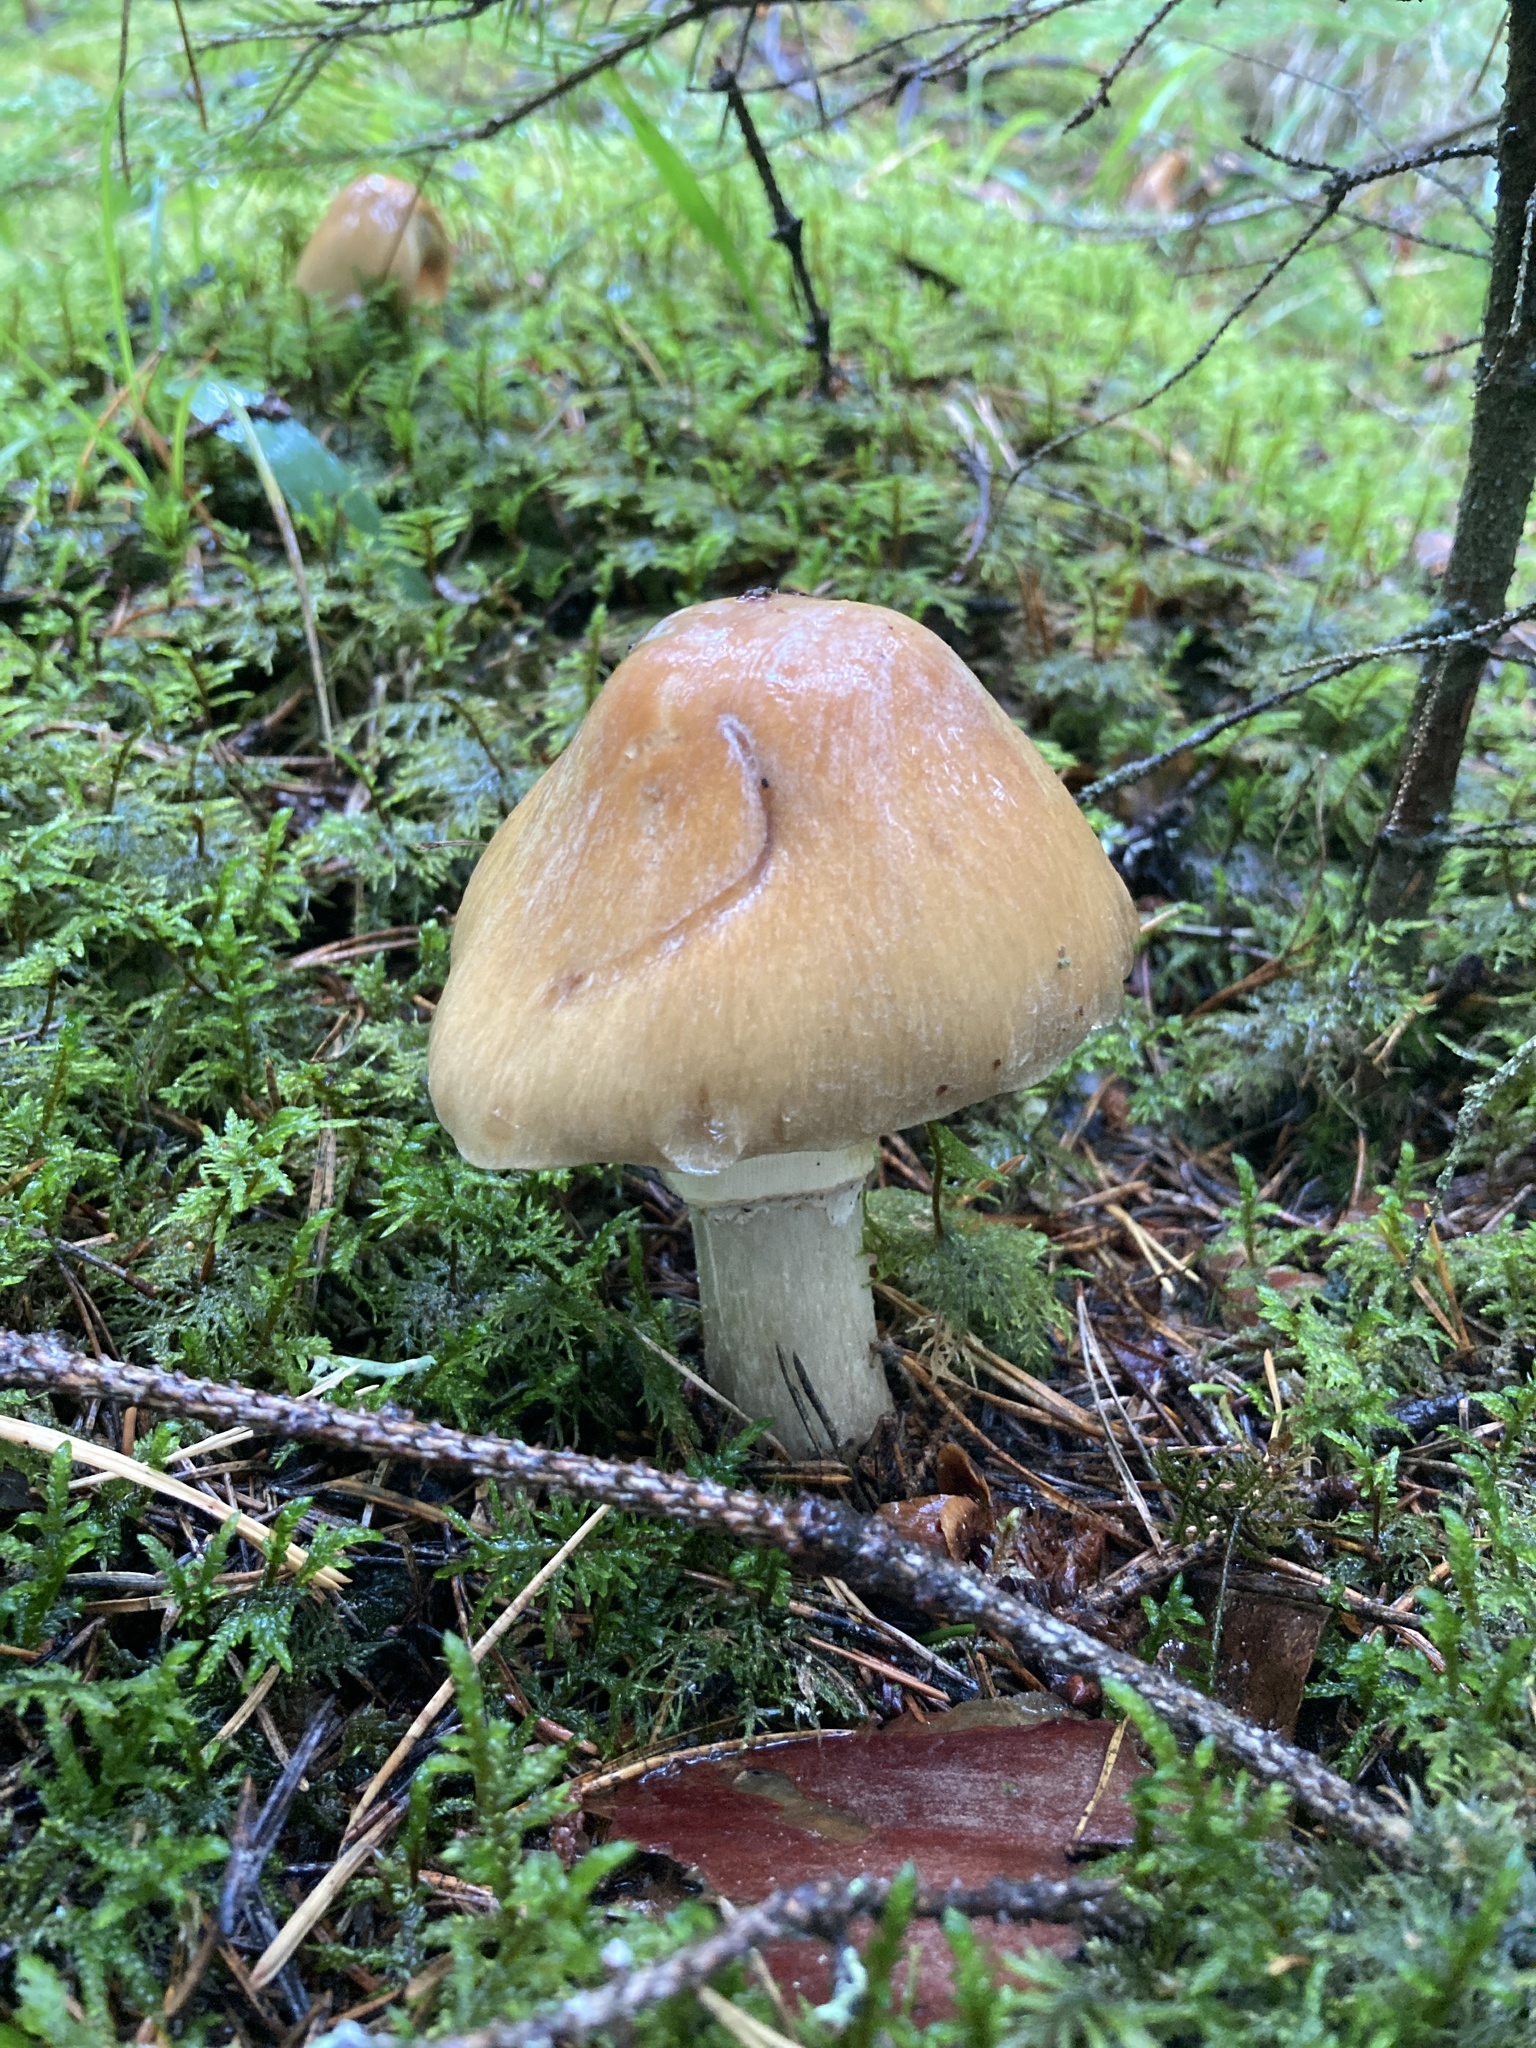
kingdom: Fungi
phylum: Basidiomycota
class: Agaricomycetes
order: Agaricales
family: Cortinariaceae
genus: Cortinarius
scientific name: Cortinarius caperatus
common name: The gypsy
